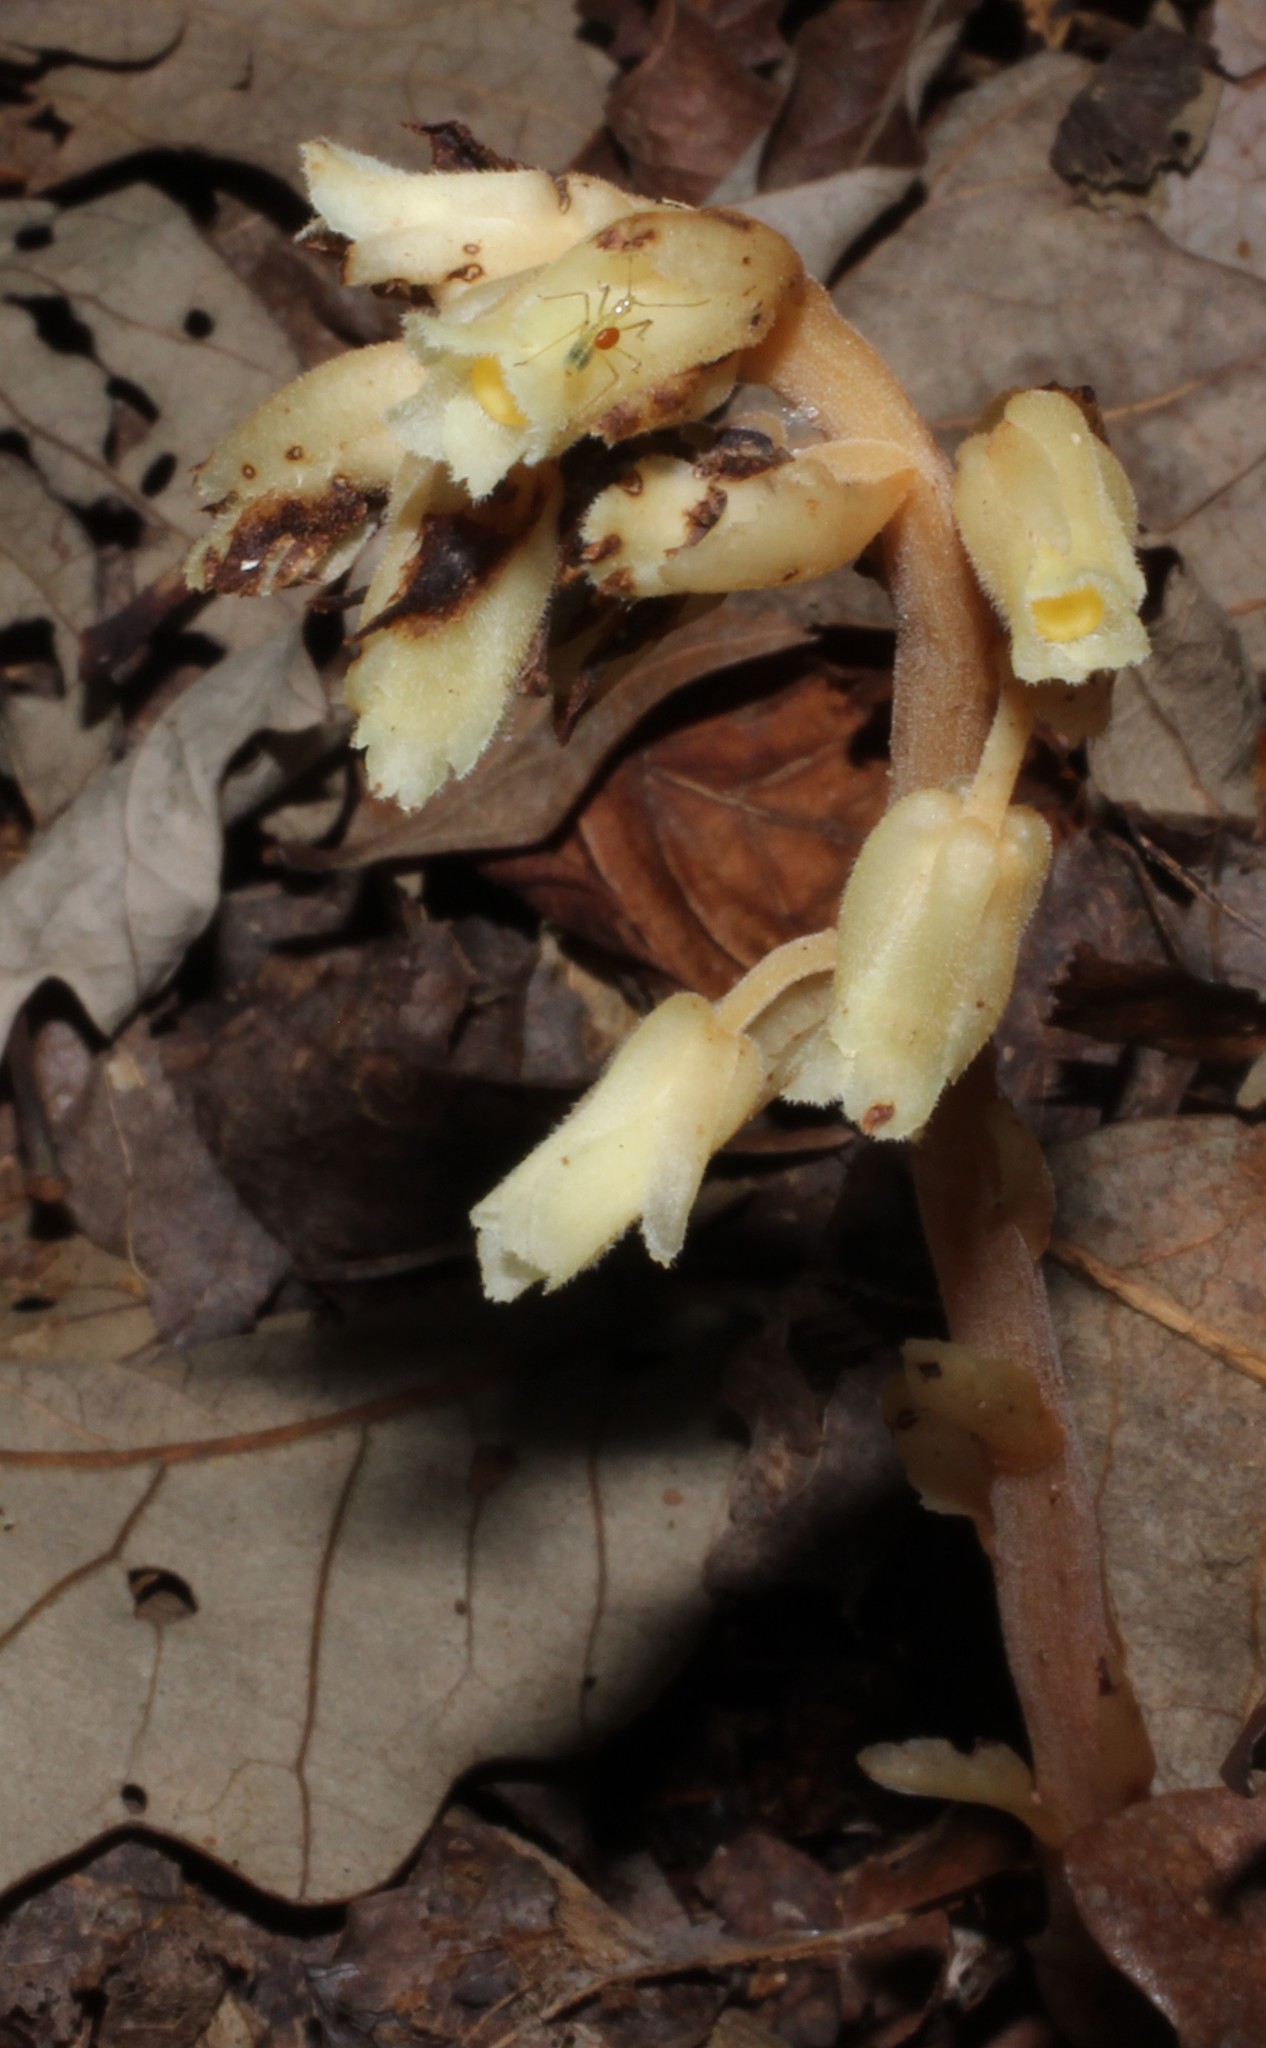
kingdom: Plantae
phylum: Tracheophyta
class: Magnoliopsida
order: Ericales
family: Ericaceae
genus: Hypopitys
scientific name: Hypopitys monotropa
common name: Yellow bird's-nest
